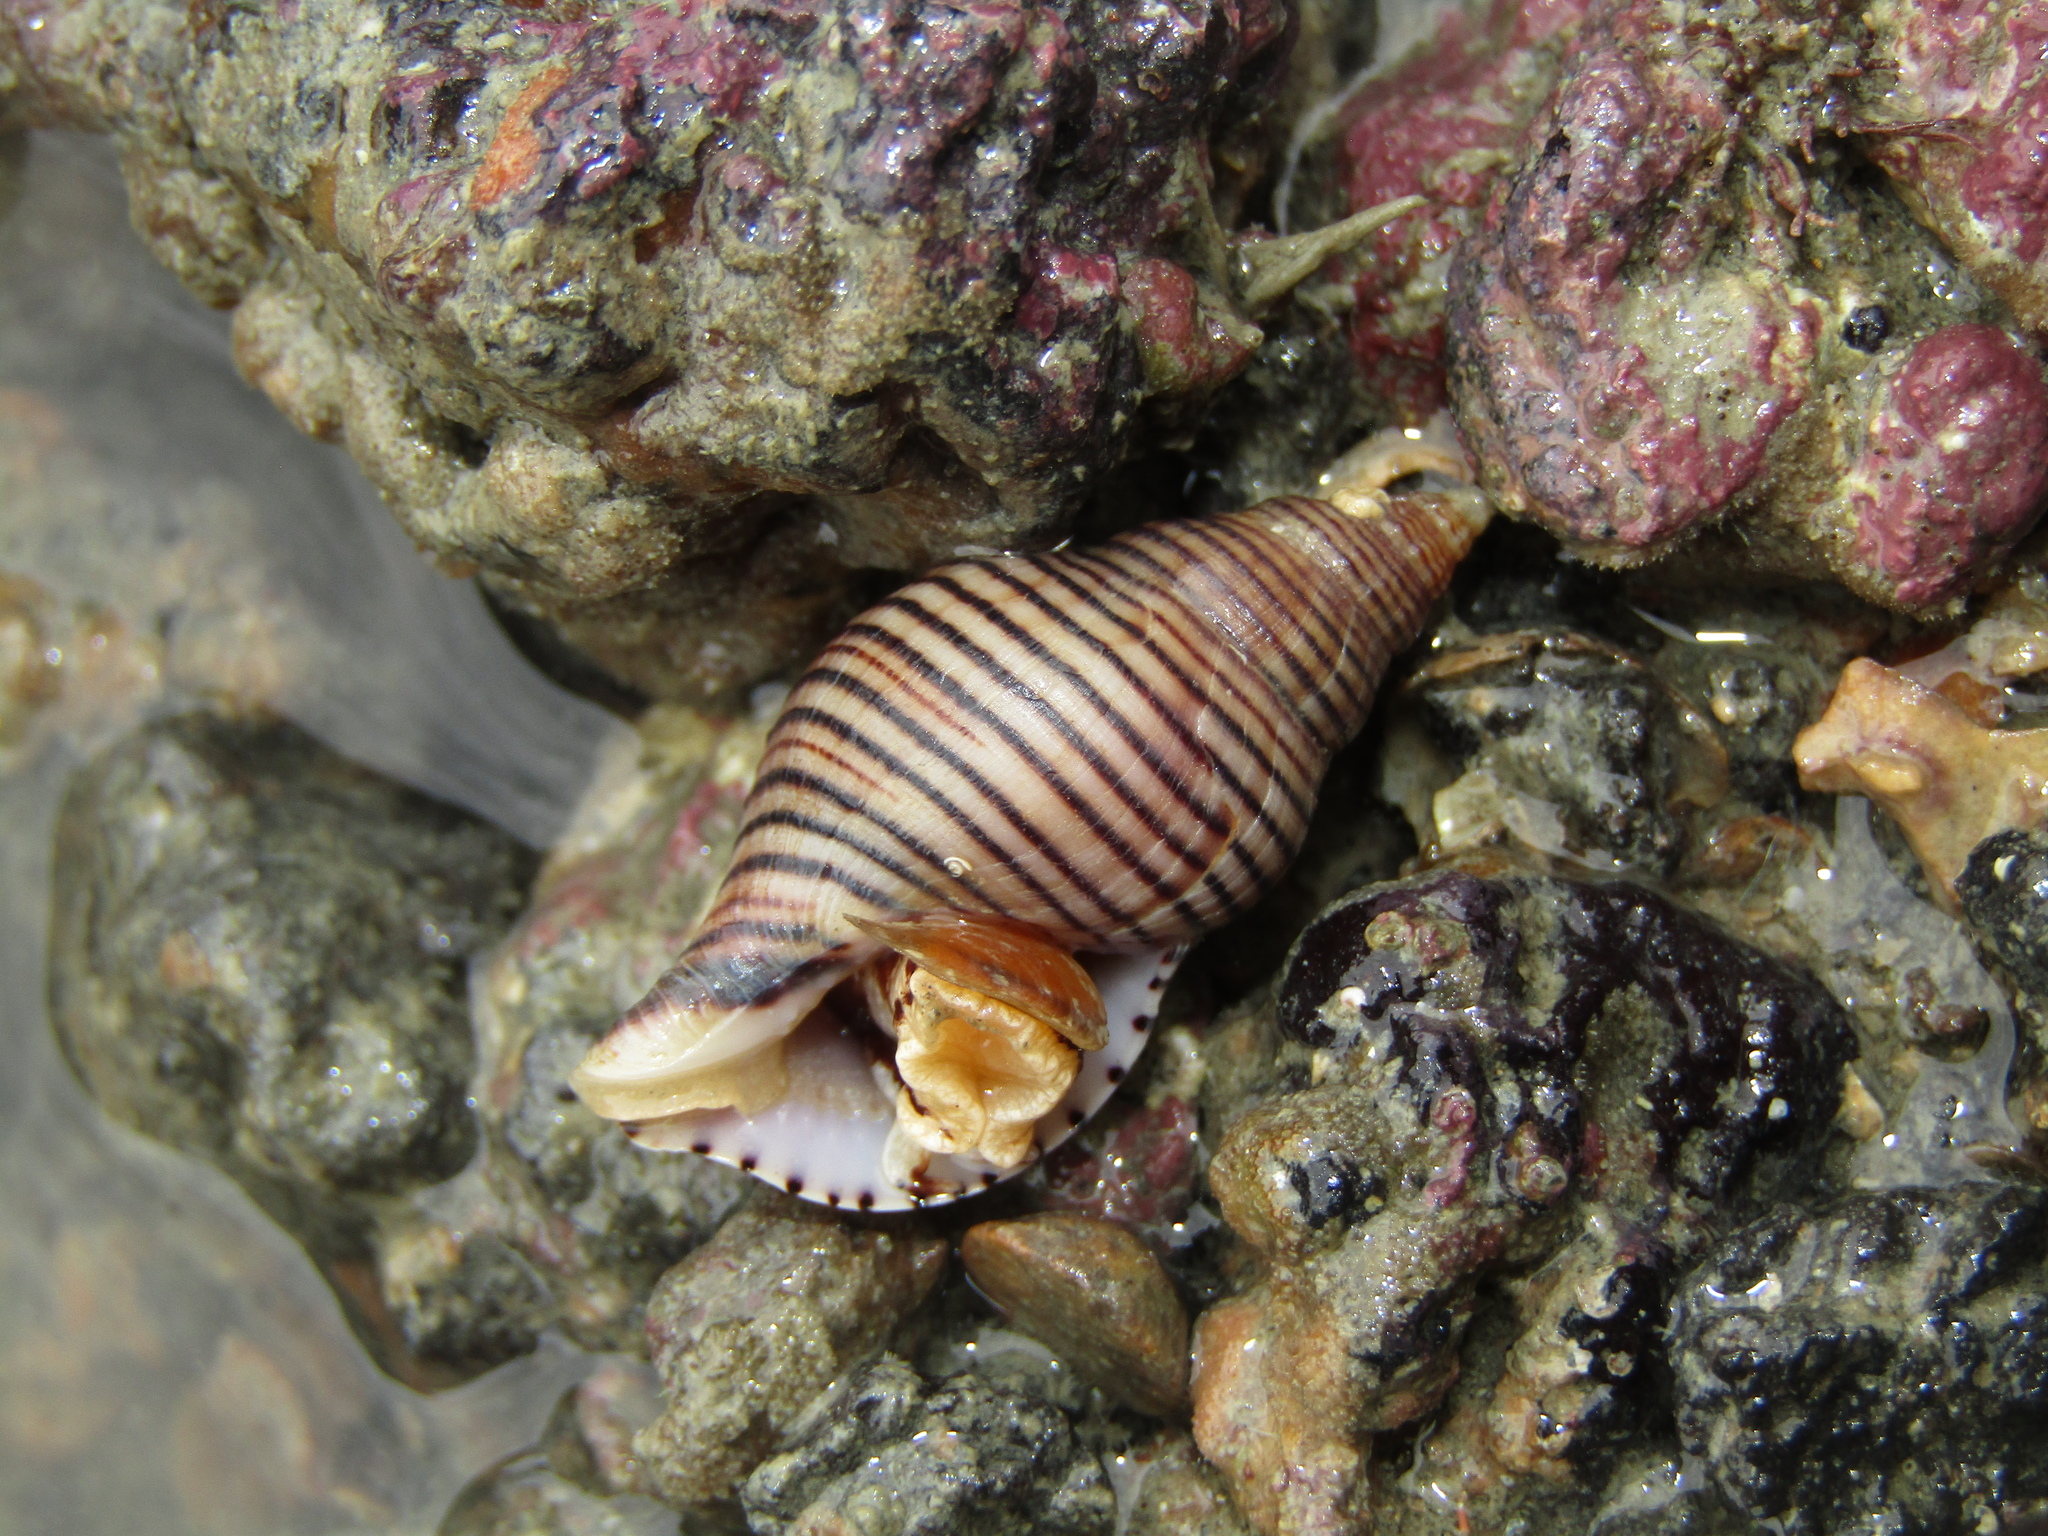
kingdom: Animalia
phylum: Mollusca
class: Gastropoda
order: Neogastropoda
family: Tudiclidae
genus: Buccinulum
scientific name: Buccinulum linea
